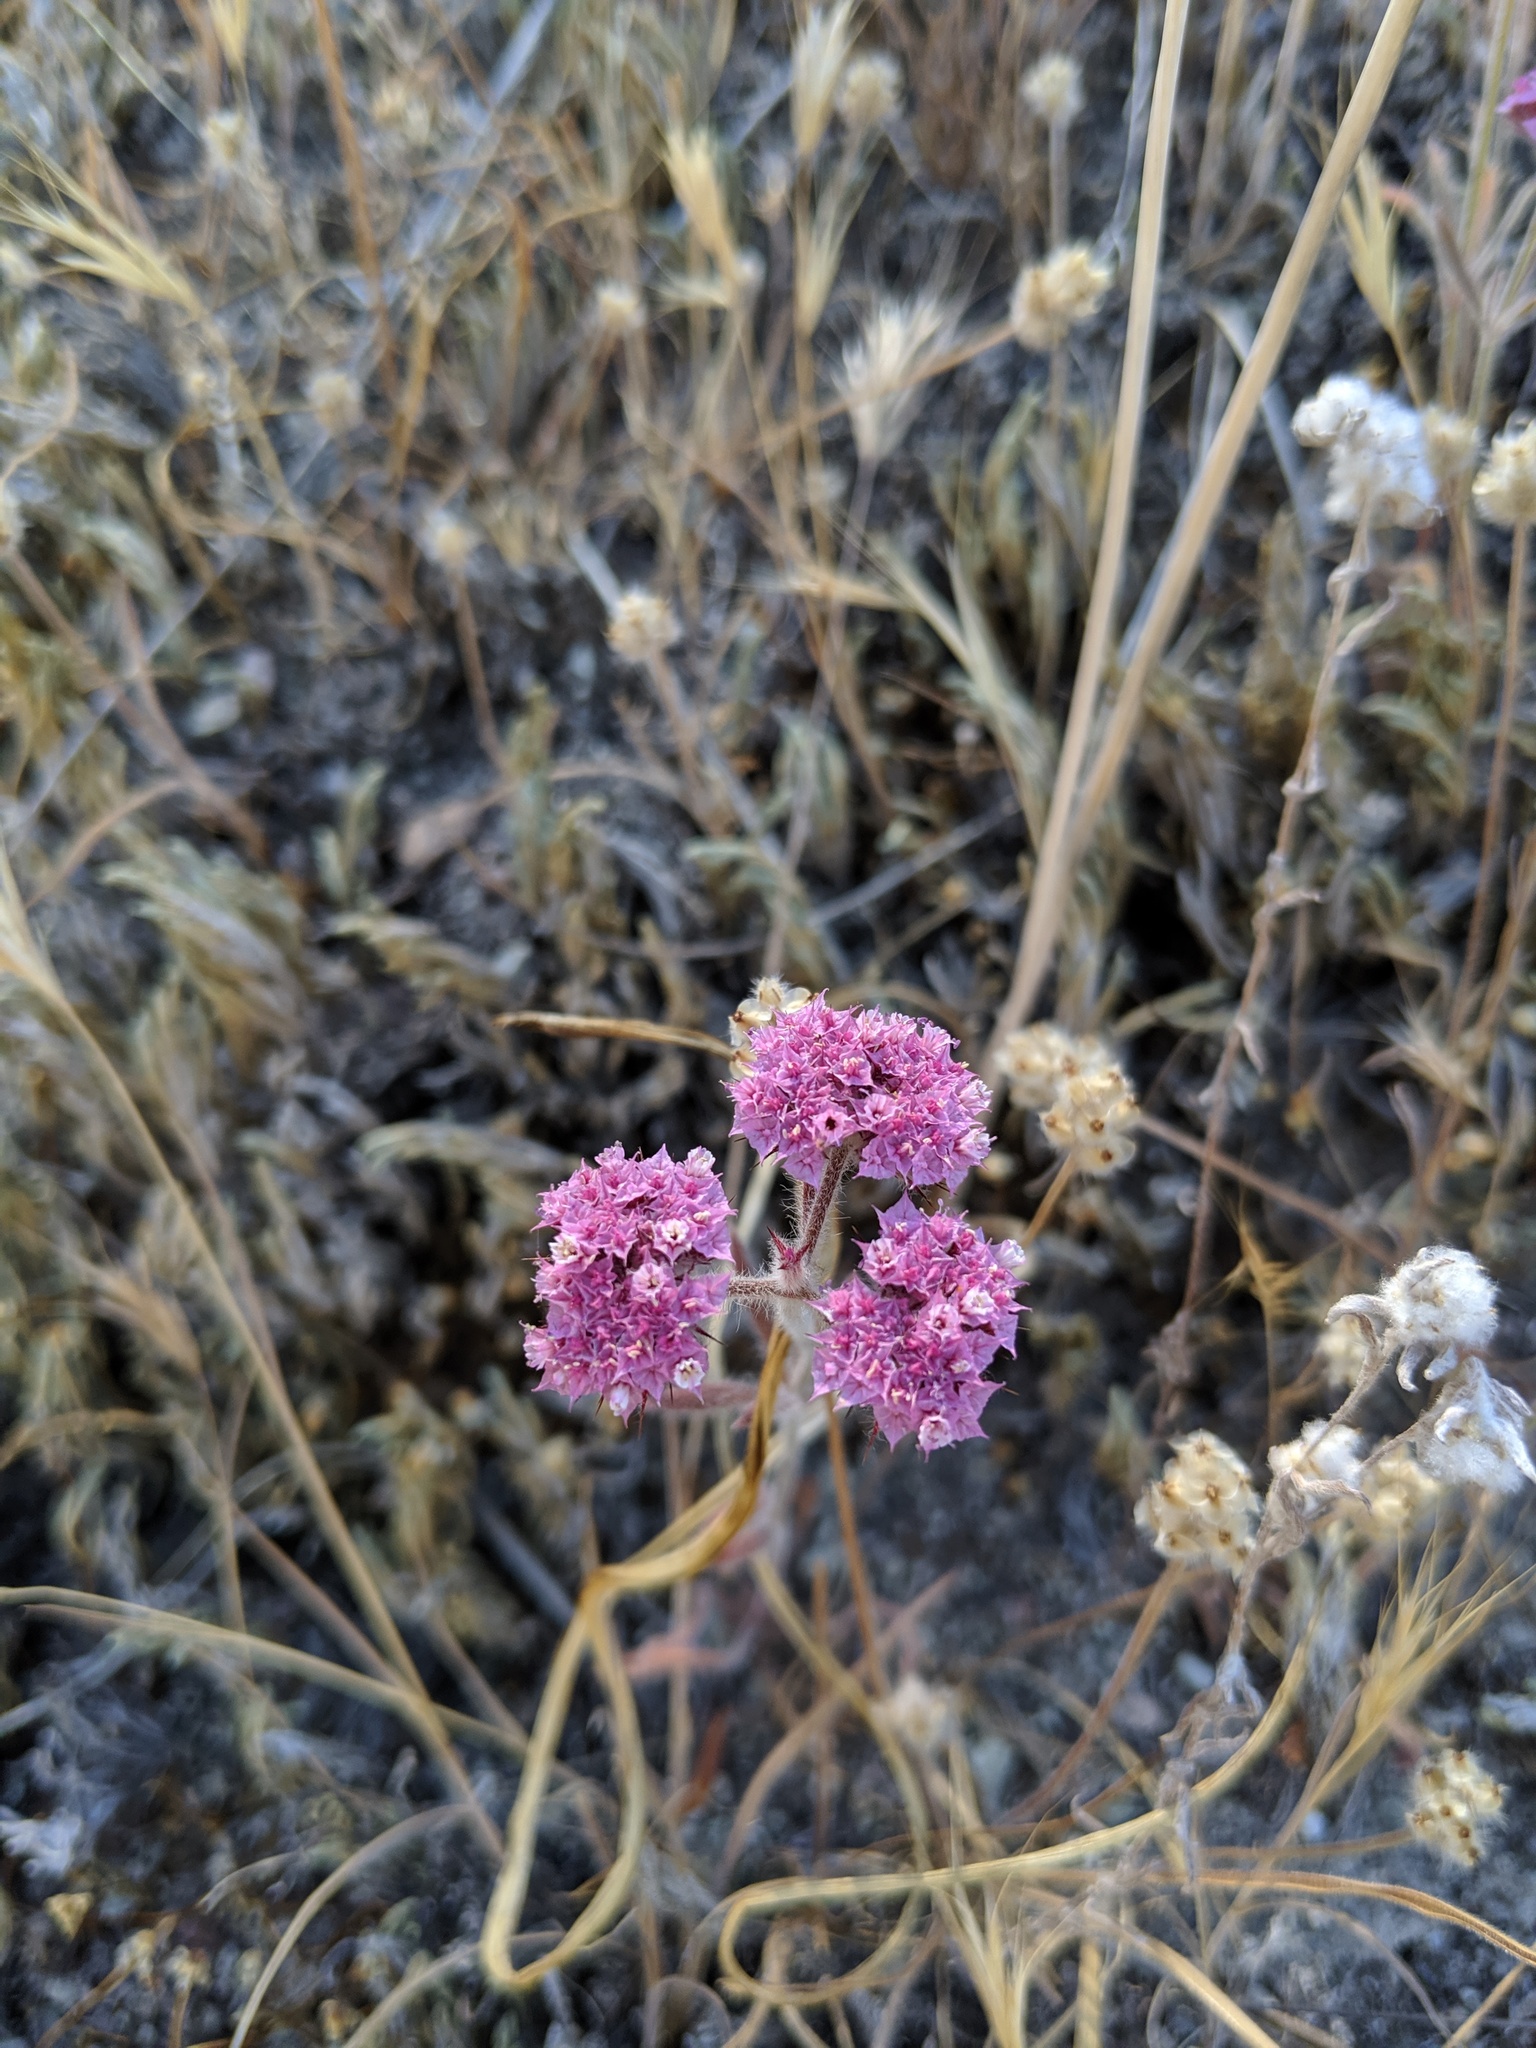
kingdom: Plantae
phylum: Tracheophyta
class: Magnoliopsida
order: Caryophyllales
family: Polygonaceae
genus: Chorizanthe
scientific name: Chorizanthe douglasii
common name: Douglas's spineflower
